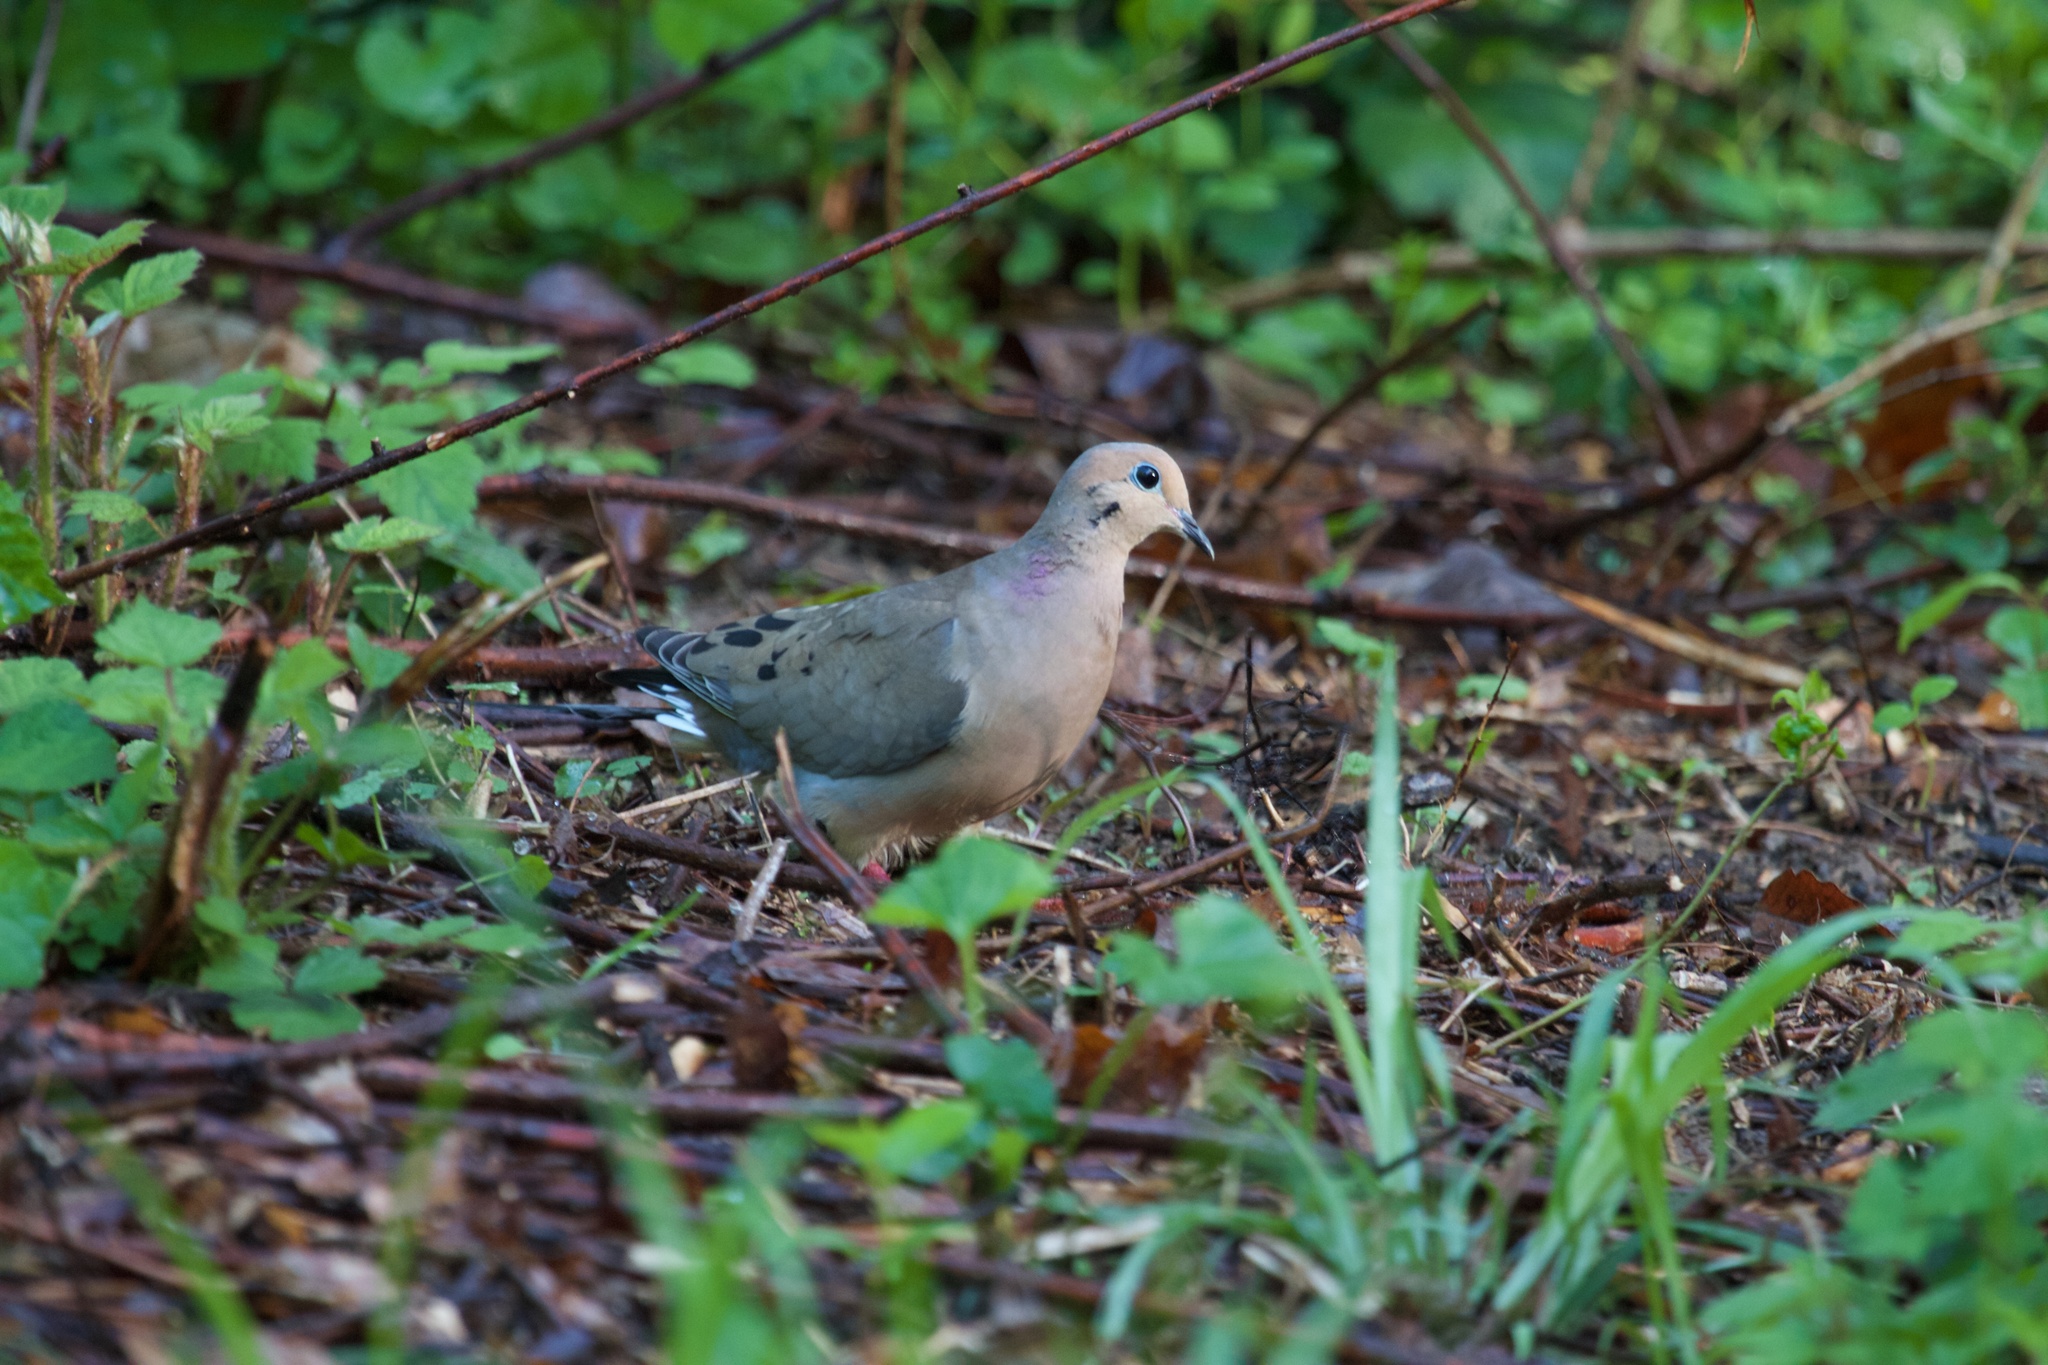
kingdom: Animalia
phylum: Chordata
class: Aves
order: Columbiformes
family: Columbidae
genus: Zenaida
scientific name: Zenaida macroura
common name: Mourning dove
